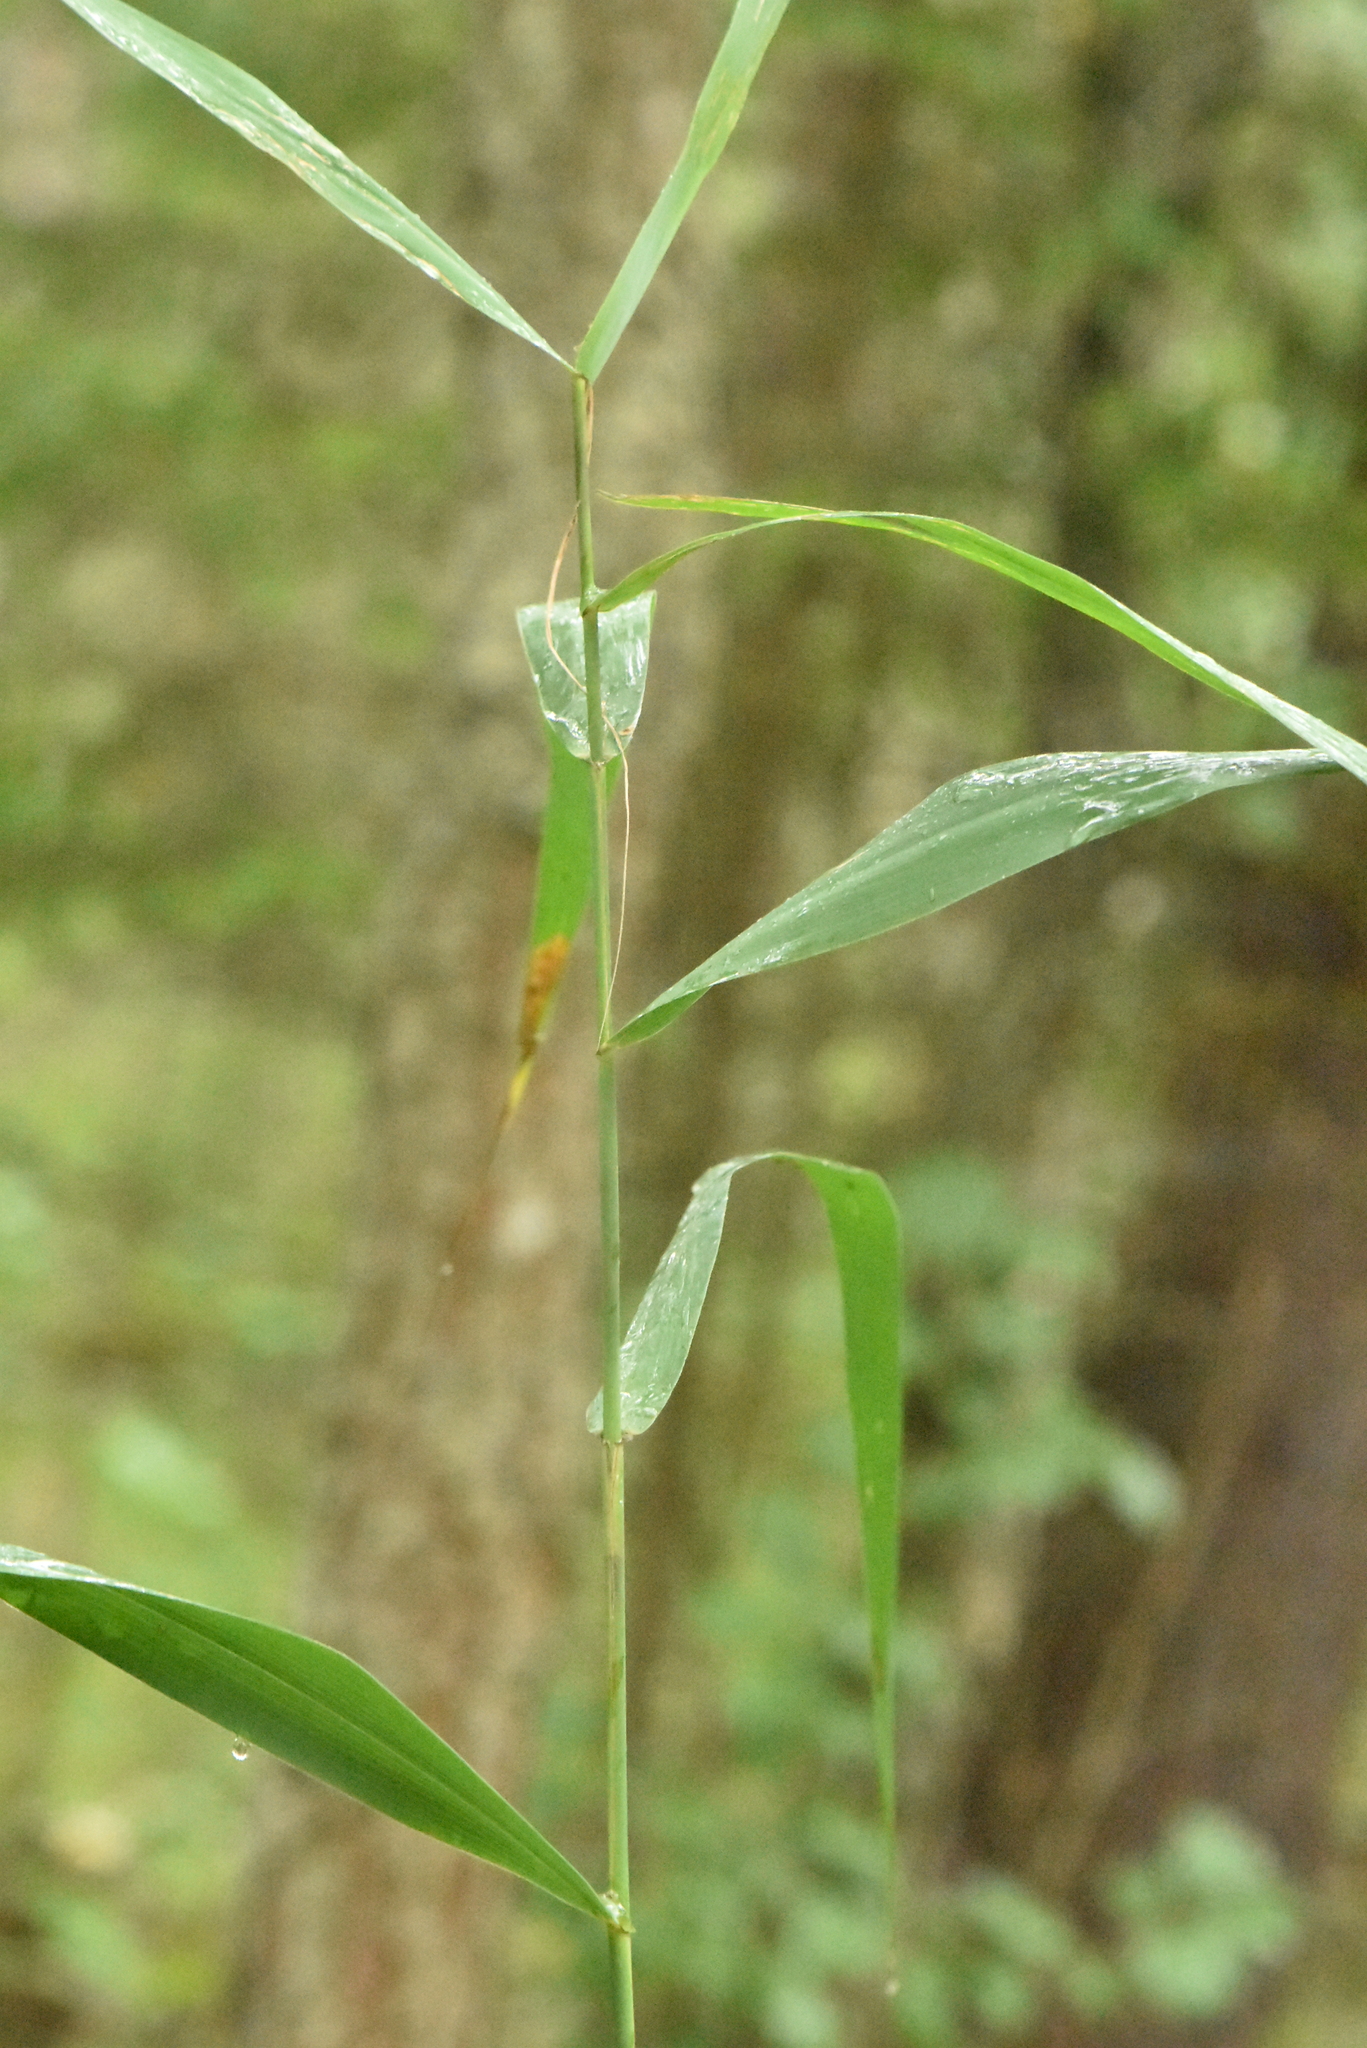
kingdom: Plantae
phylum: Tracheophyta
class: Liliopsida
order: Poales
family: Poaceae
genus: Phragmites
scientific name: Phragmites australis
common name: Common reed
